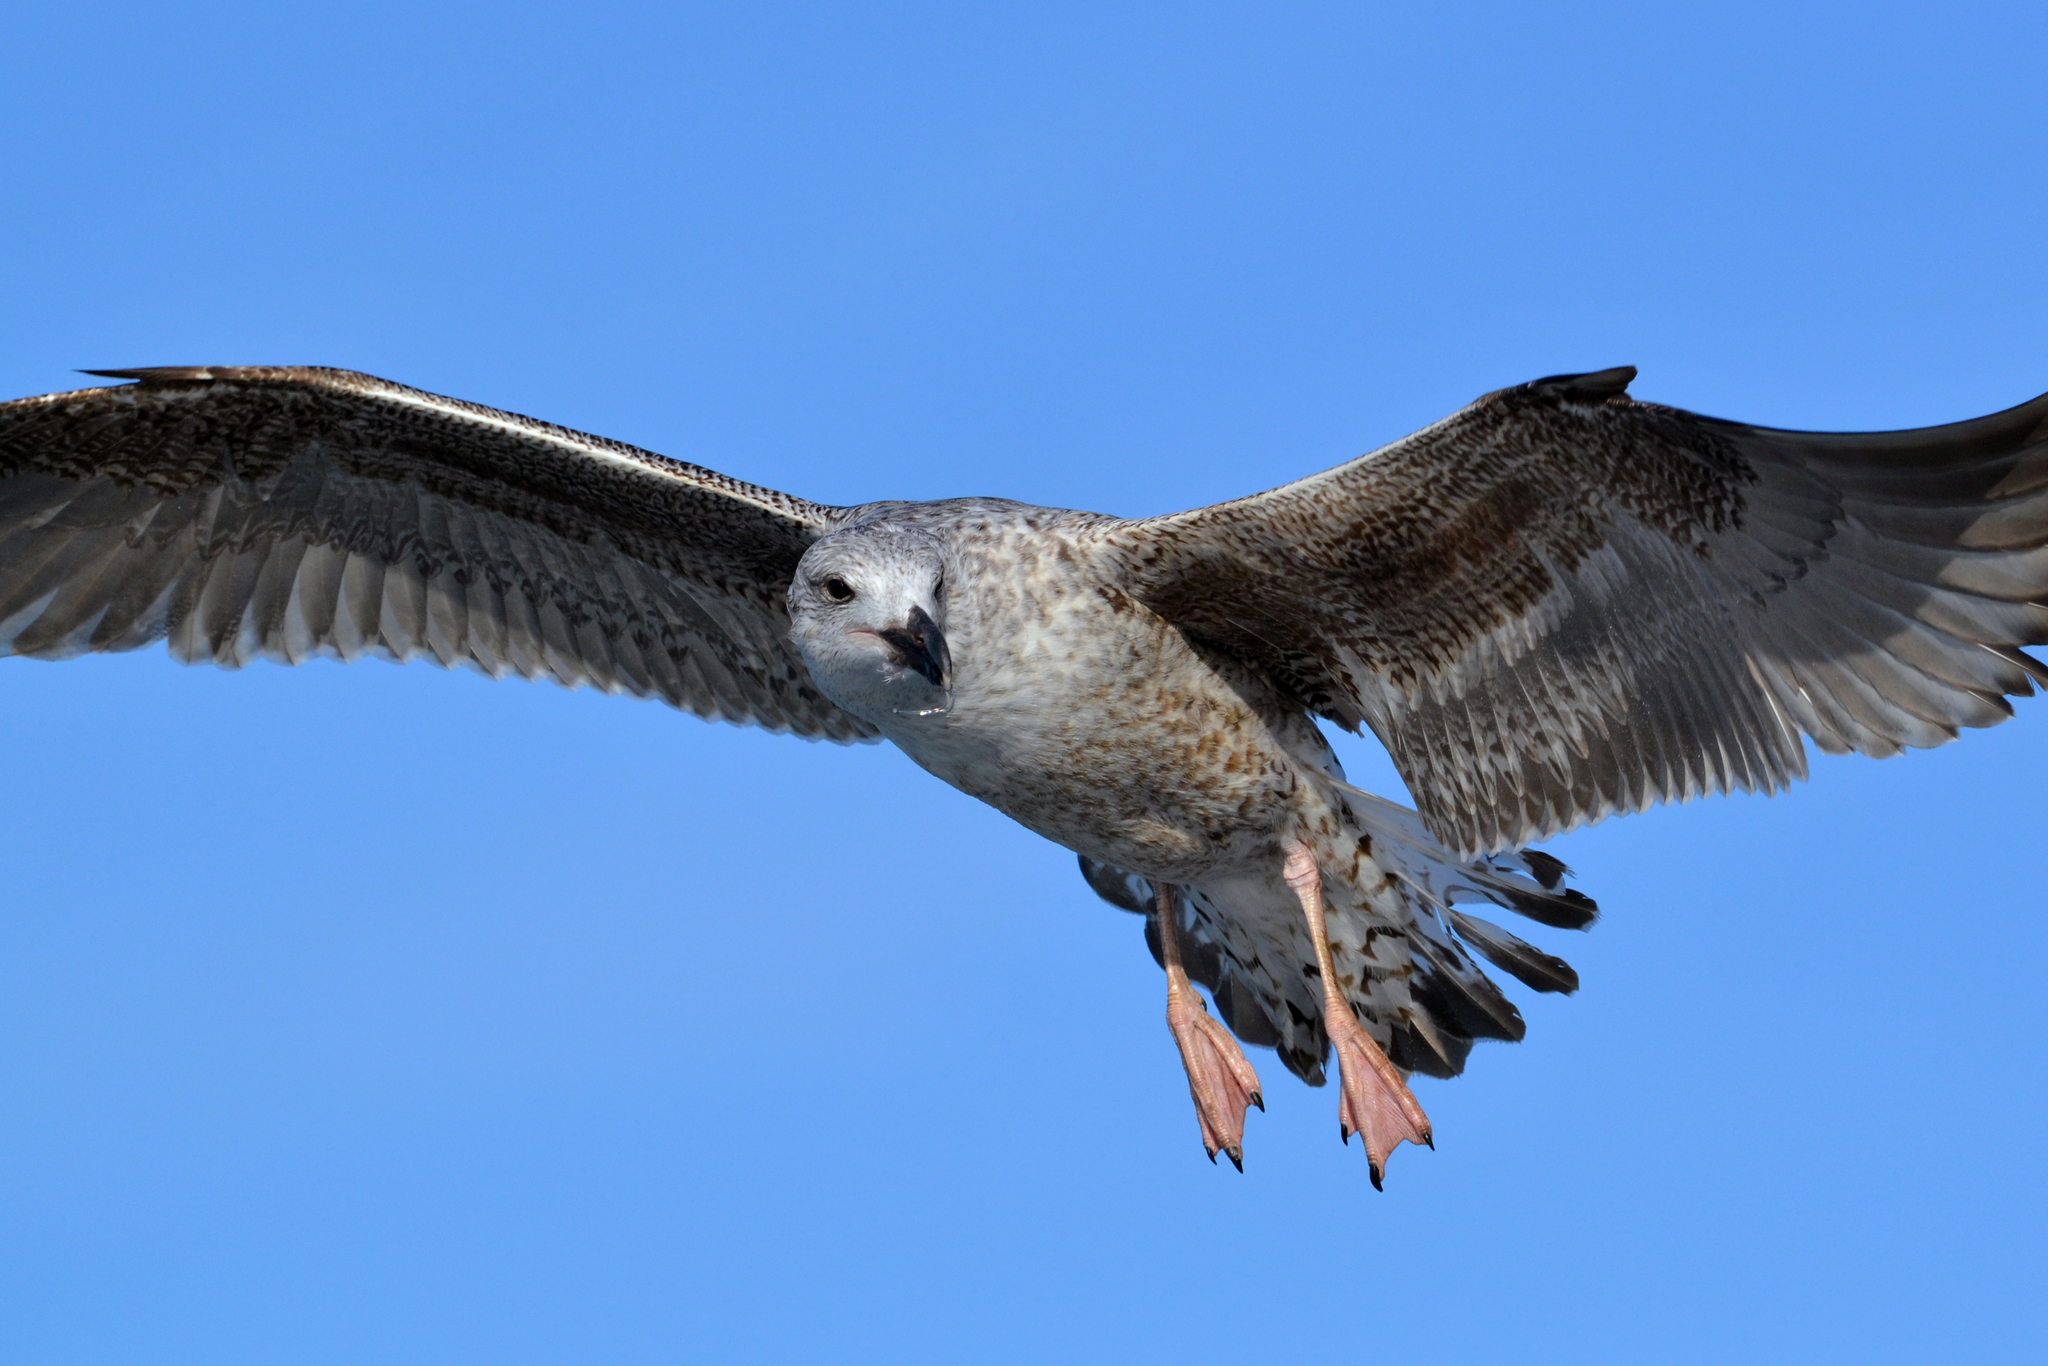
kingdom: Animalia
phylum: Chordata
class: Aves
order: Charadriiformes
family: Laridae
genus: Larus
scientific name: Larus marinus
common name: Great black-backed gull
